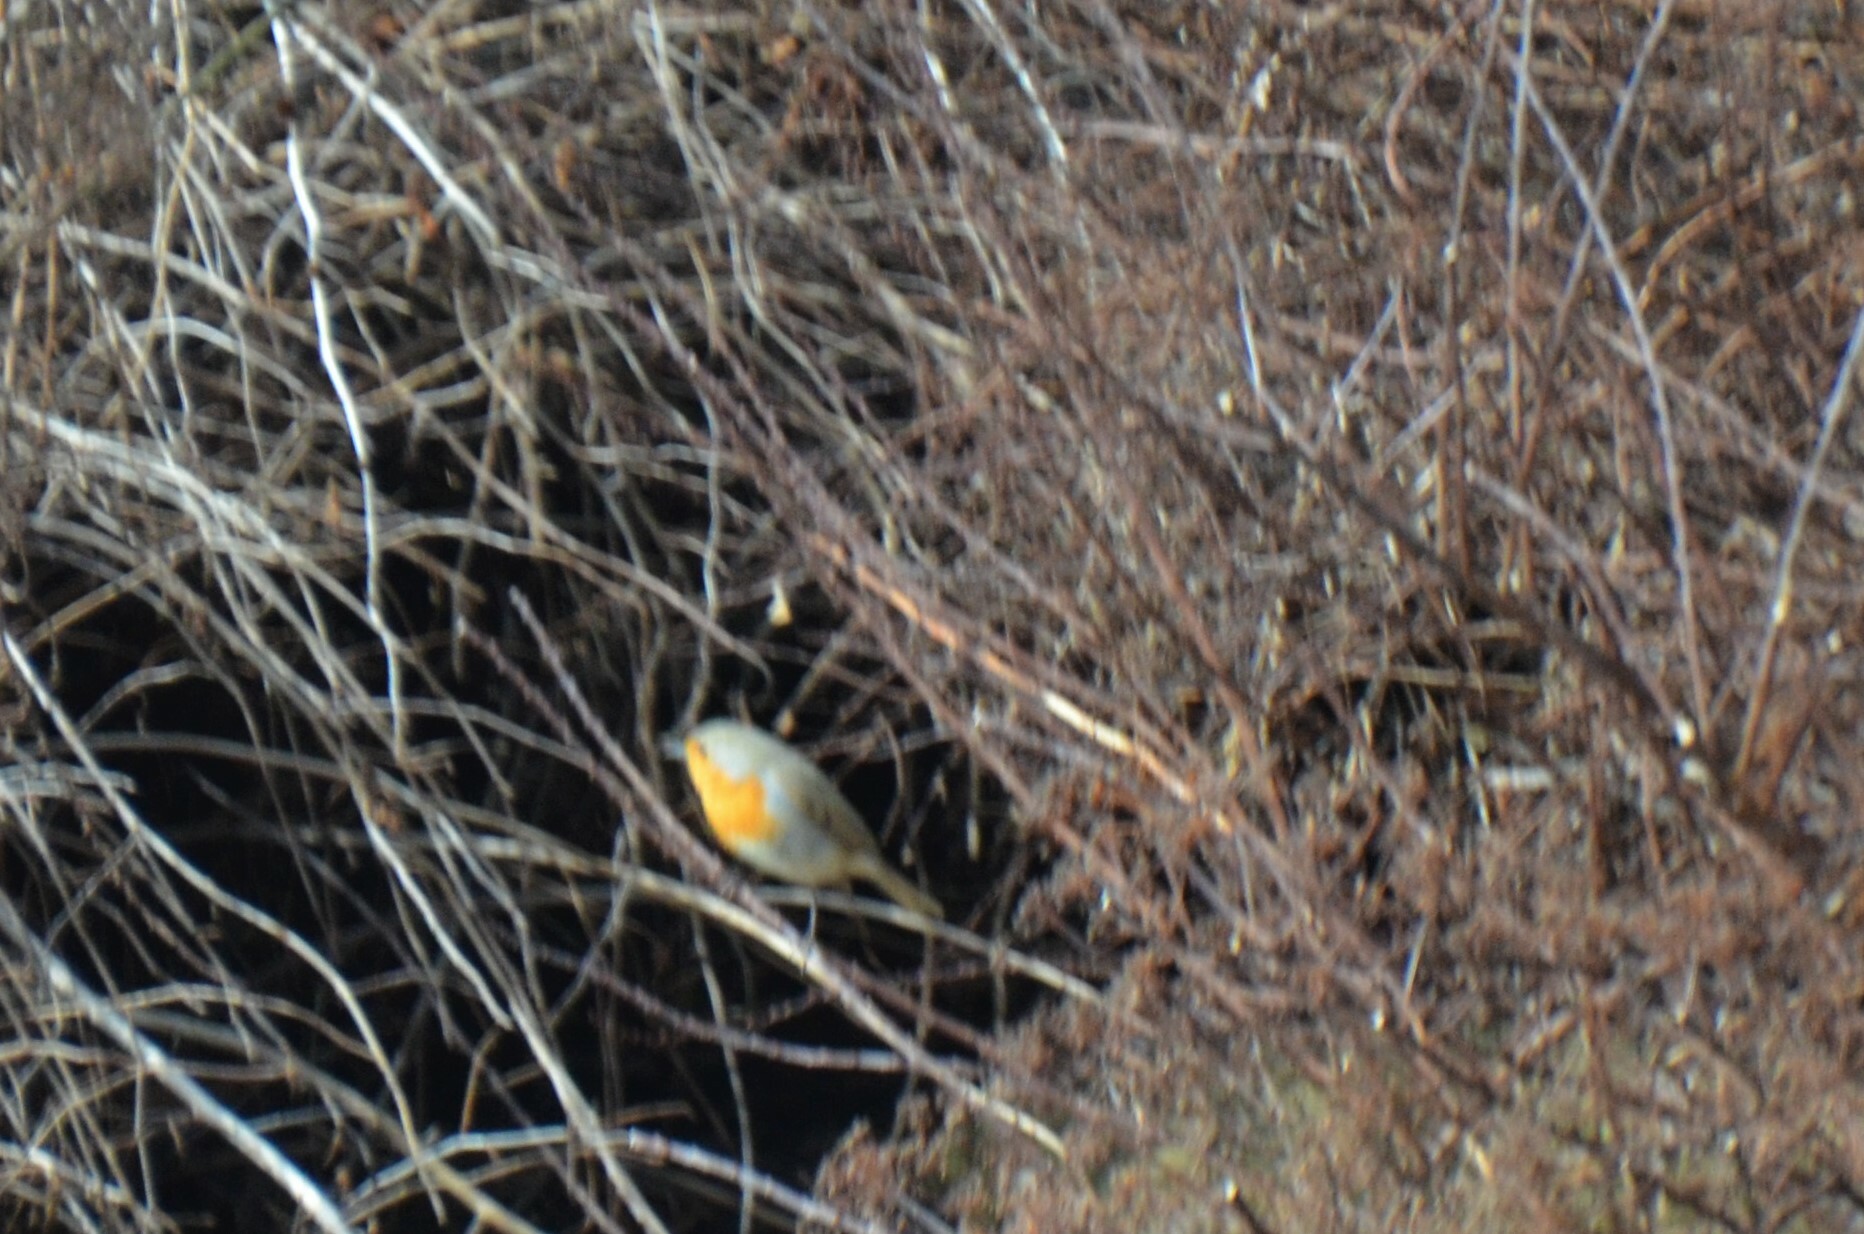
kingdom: Animalia
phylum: Chordata
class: Aves
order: Passeriformes
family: Muscicapidae
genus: Erithacus
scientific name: Erithacus rubecula
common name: European robin
